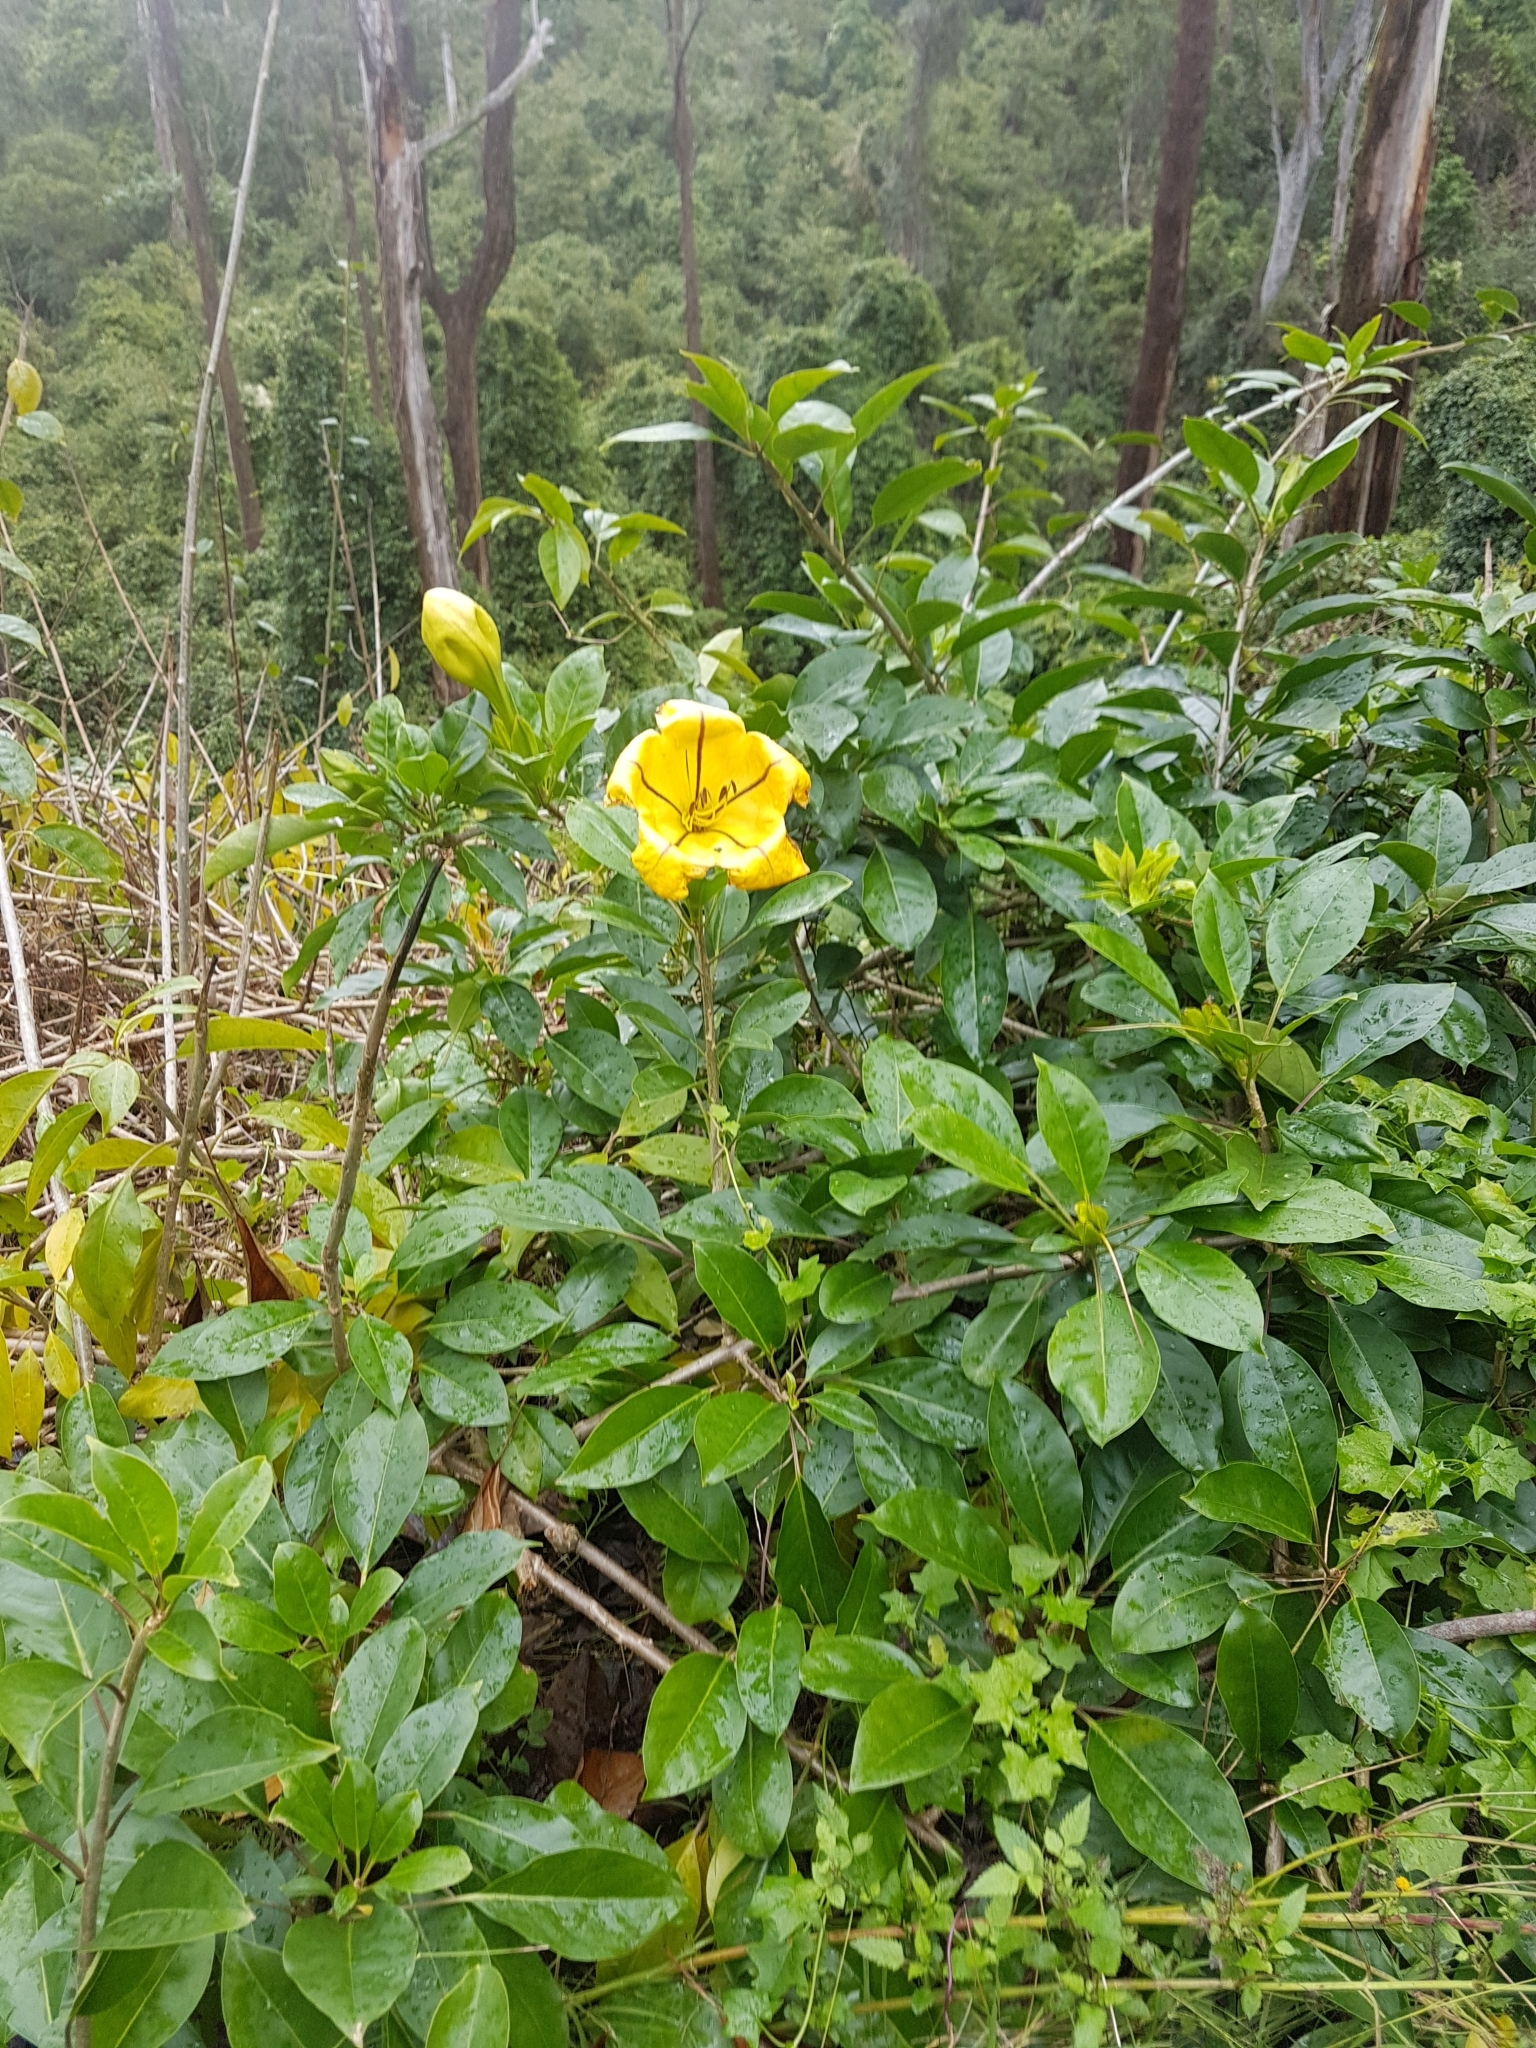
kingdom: Plantae
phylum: Tracheophyta
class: Magnoliopsida
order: Solanales
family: Solanaceae
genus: Solandra
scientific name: Solandra maxima
